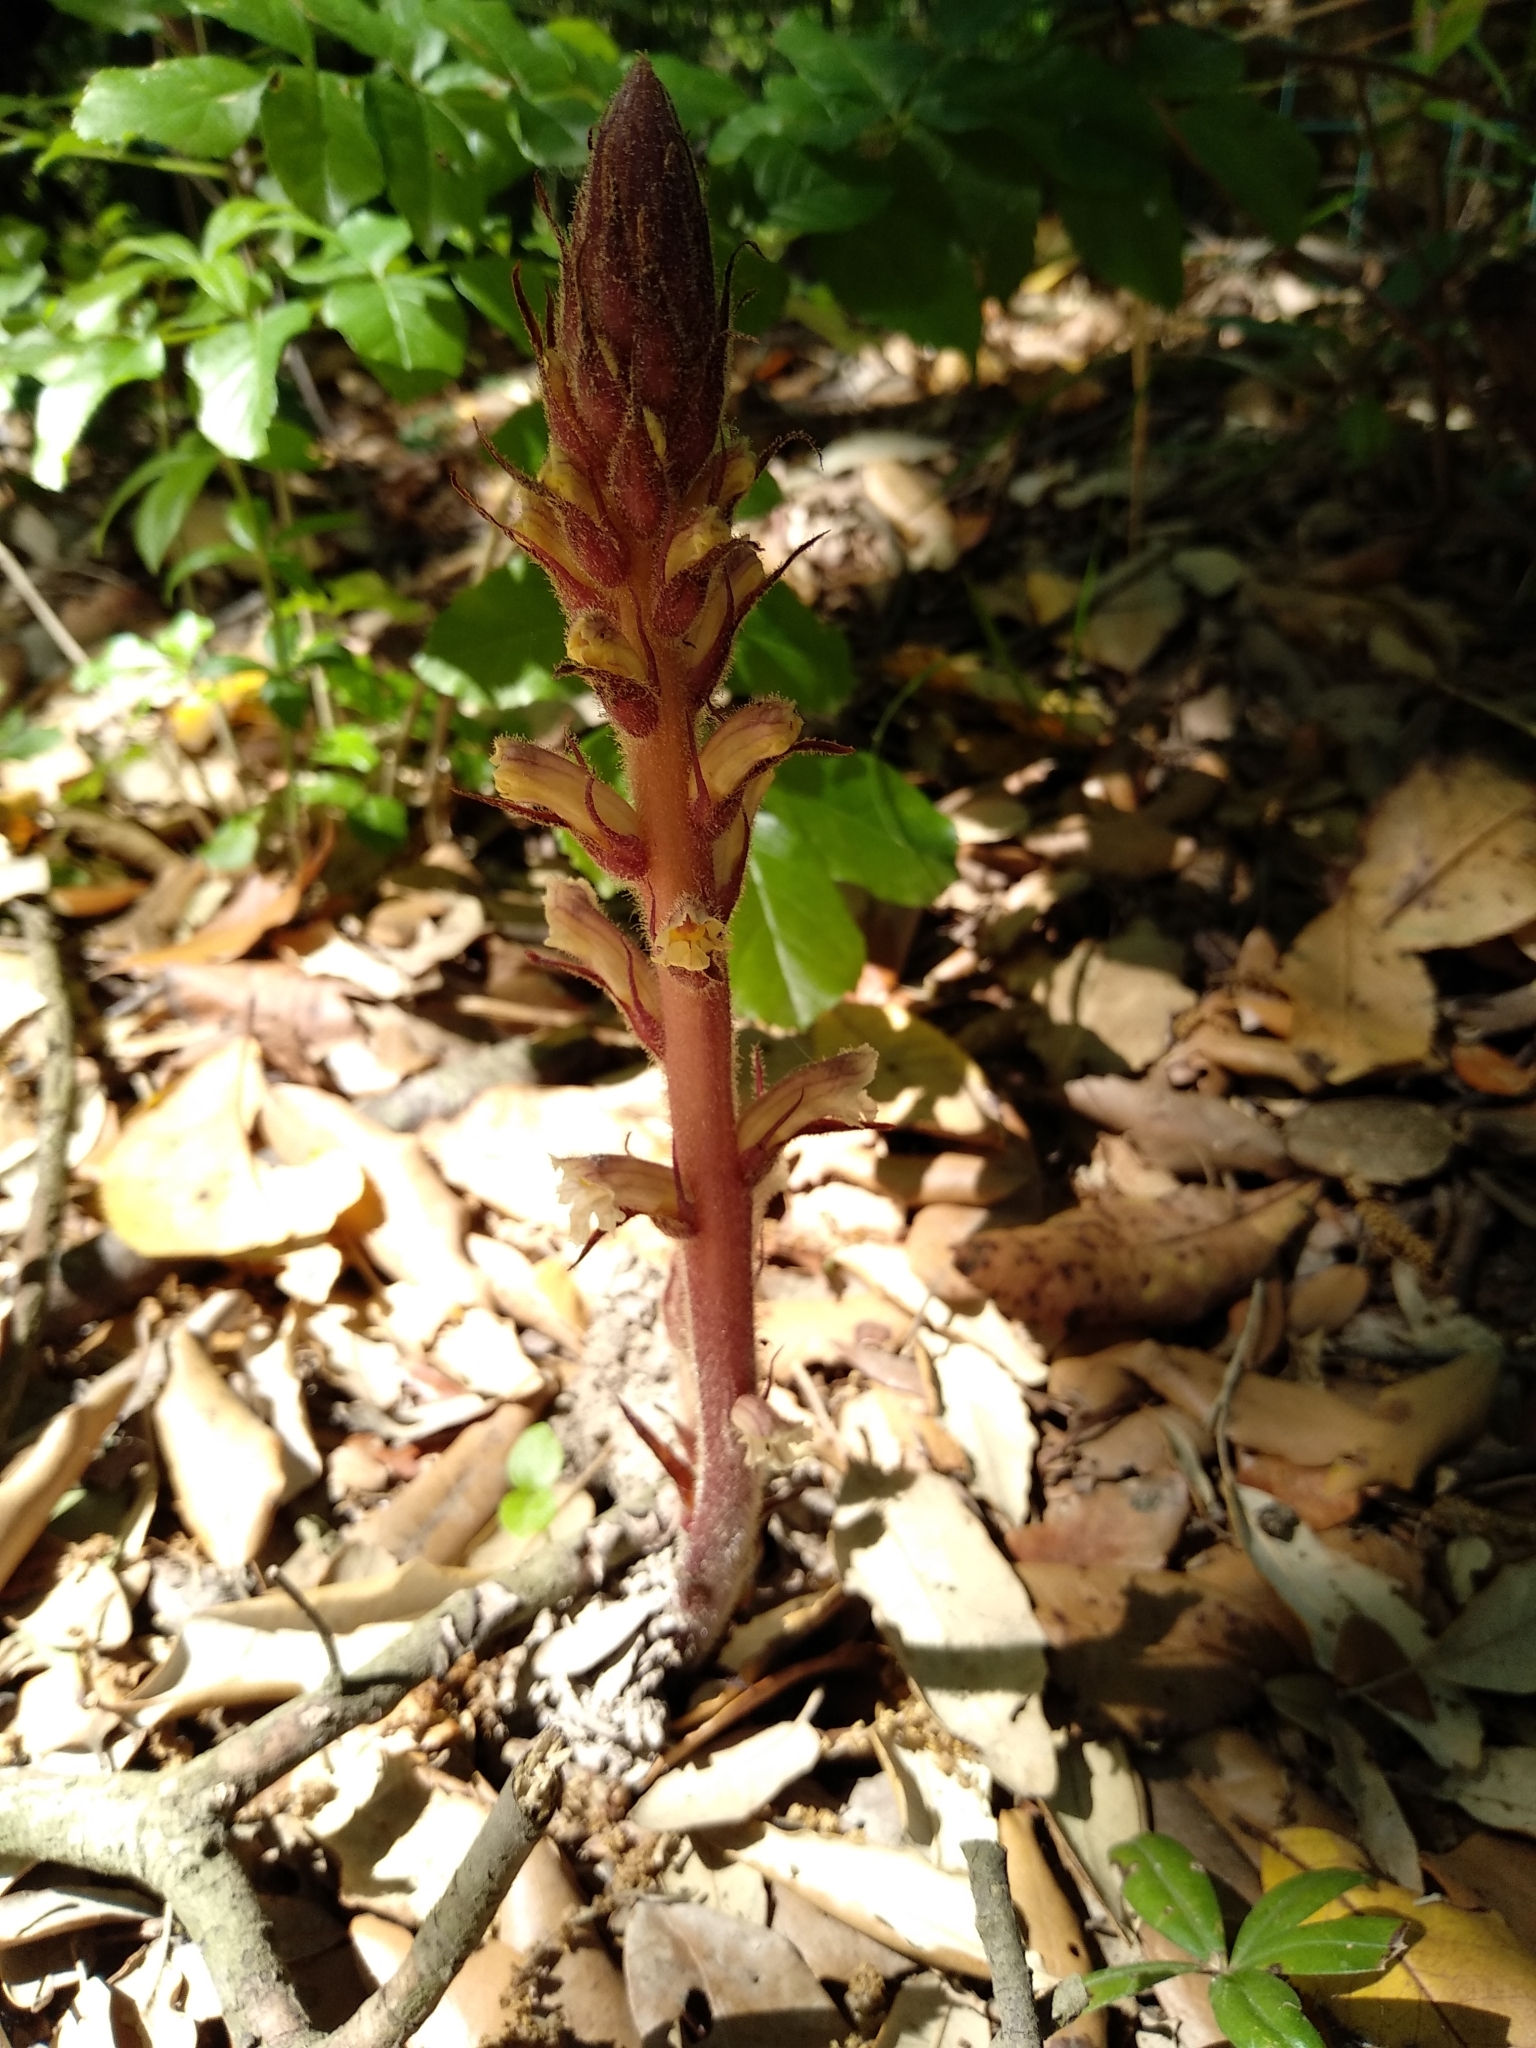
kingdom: Plantae
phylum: Tracheophyta
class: Magnoliopsida
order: Lamiales
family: Orobanchaceae
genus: Orobanche
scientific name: Orobanche hederae
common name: Ivy broomrape
